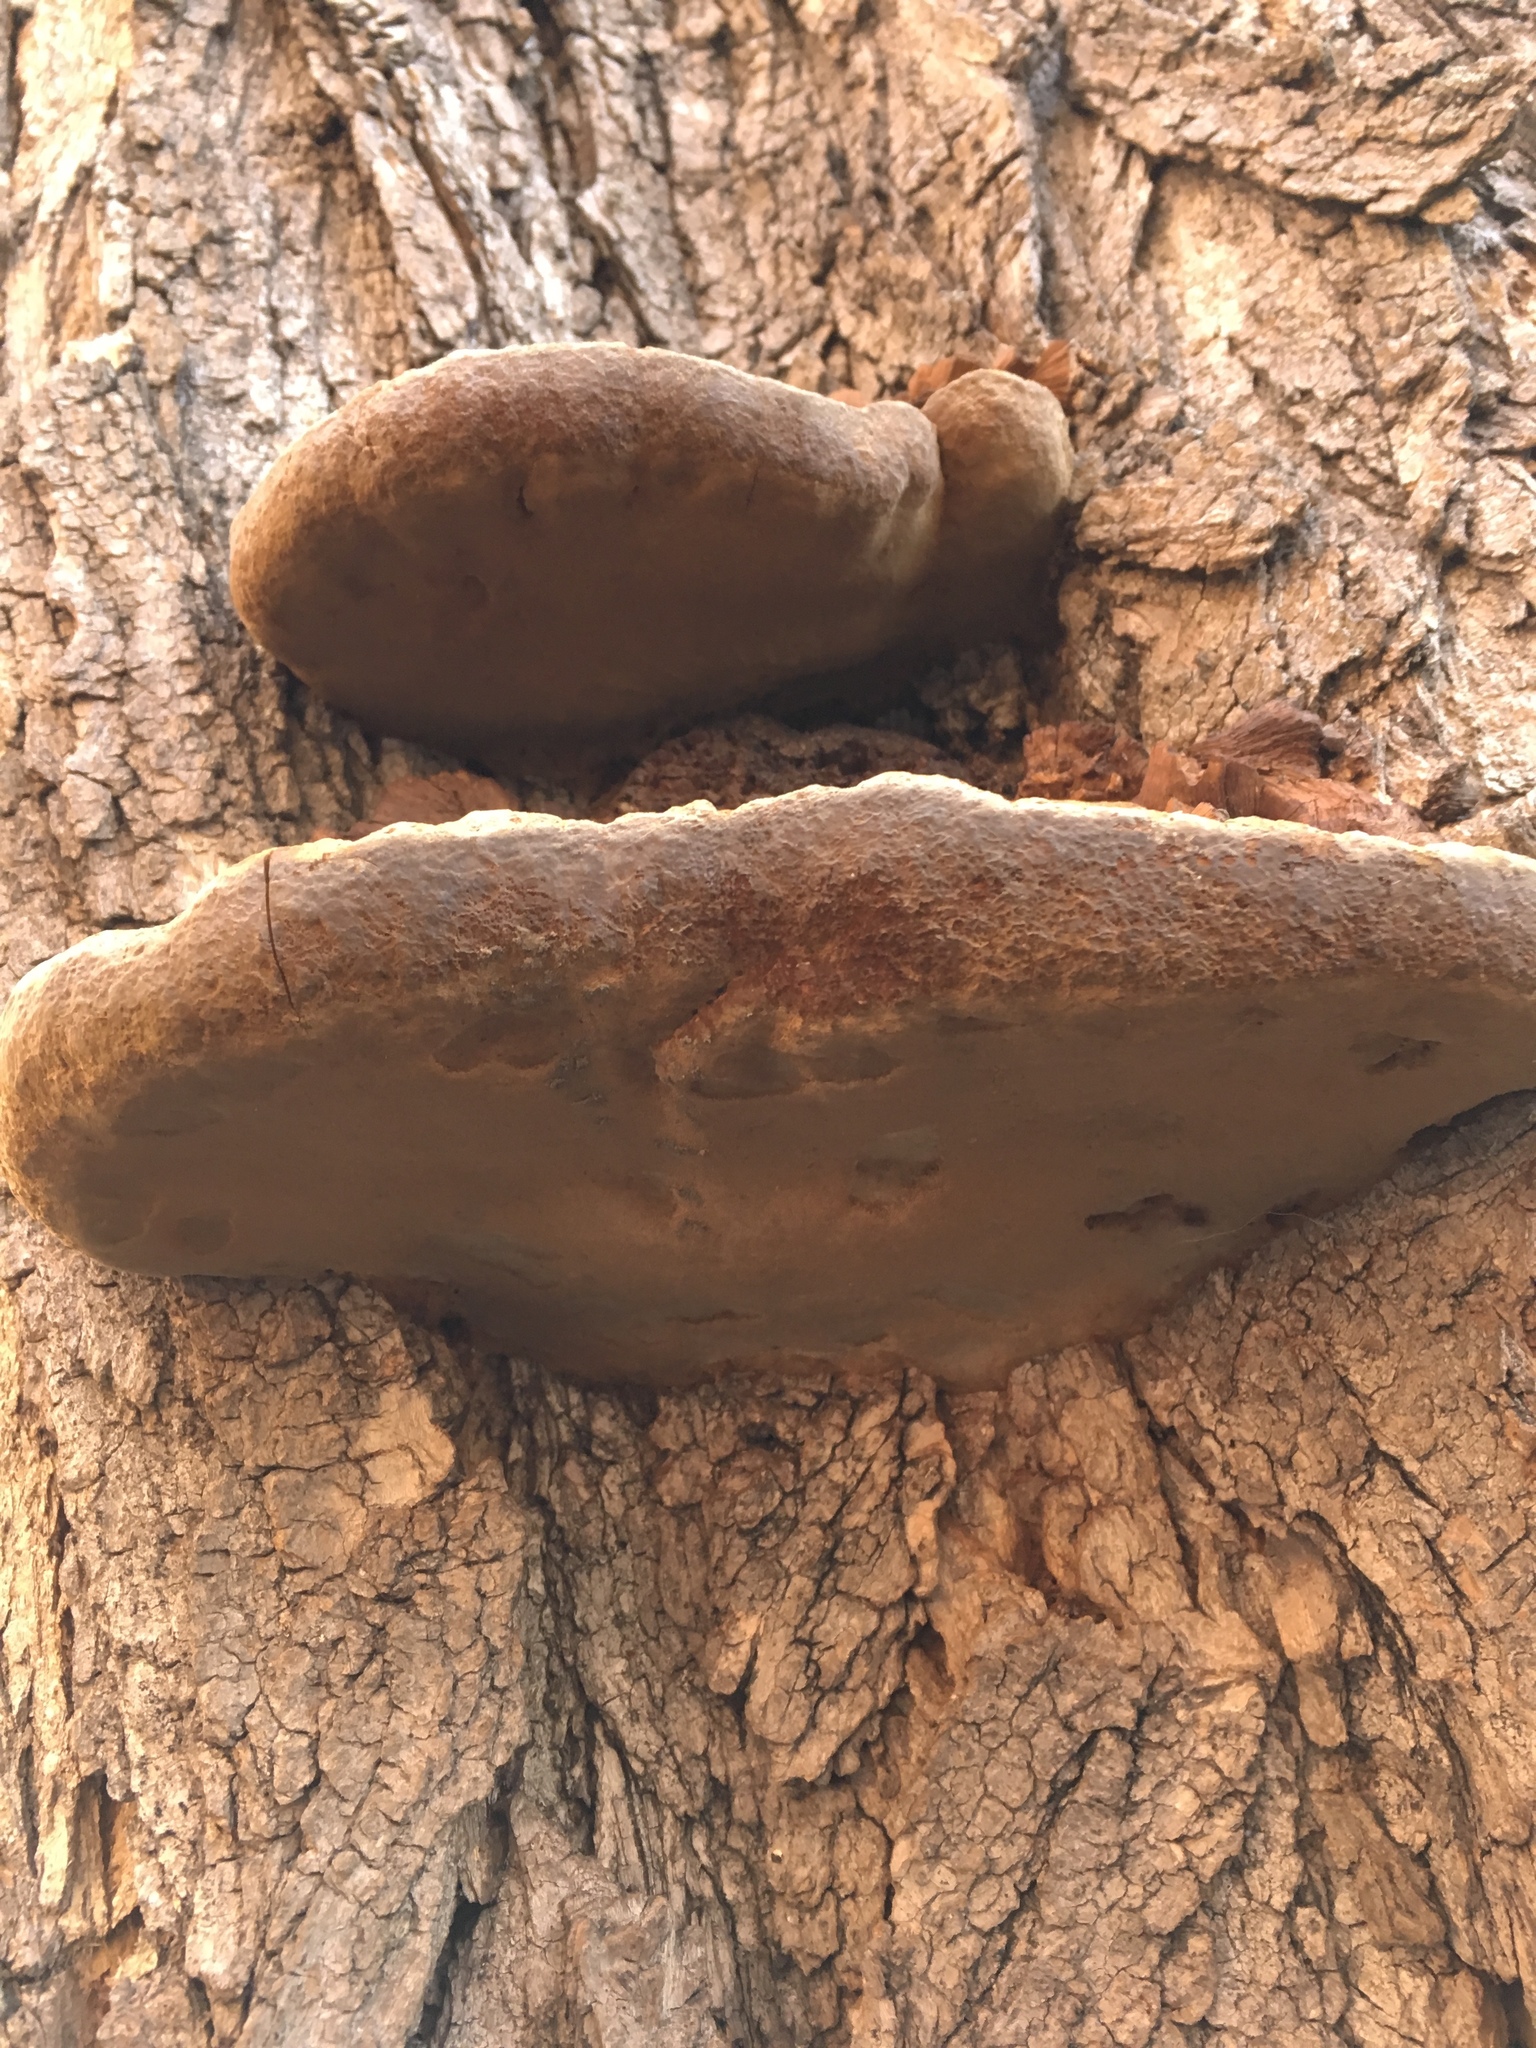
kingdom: Fungi
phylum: Basidiomycota
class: Agaricomycetes
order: Hymenochaetales
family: Hymenochaetaceae
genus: Phellinus
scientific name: Phellinus robiniae
